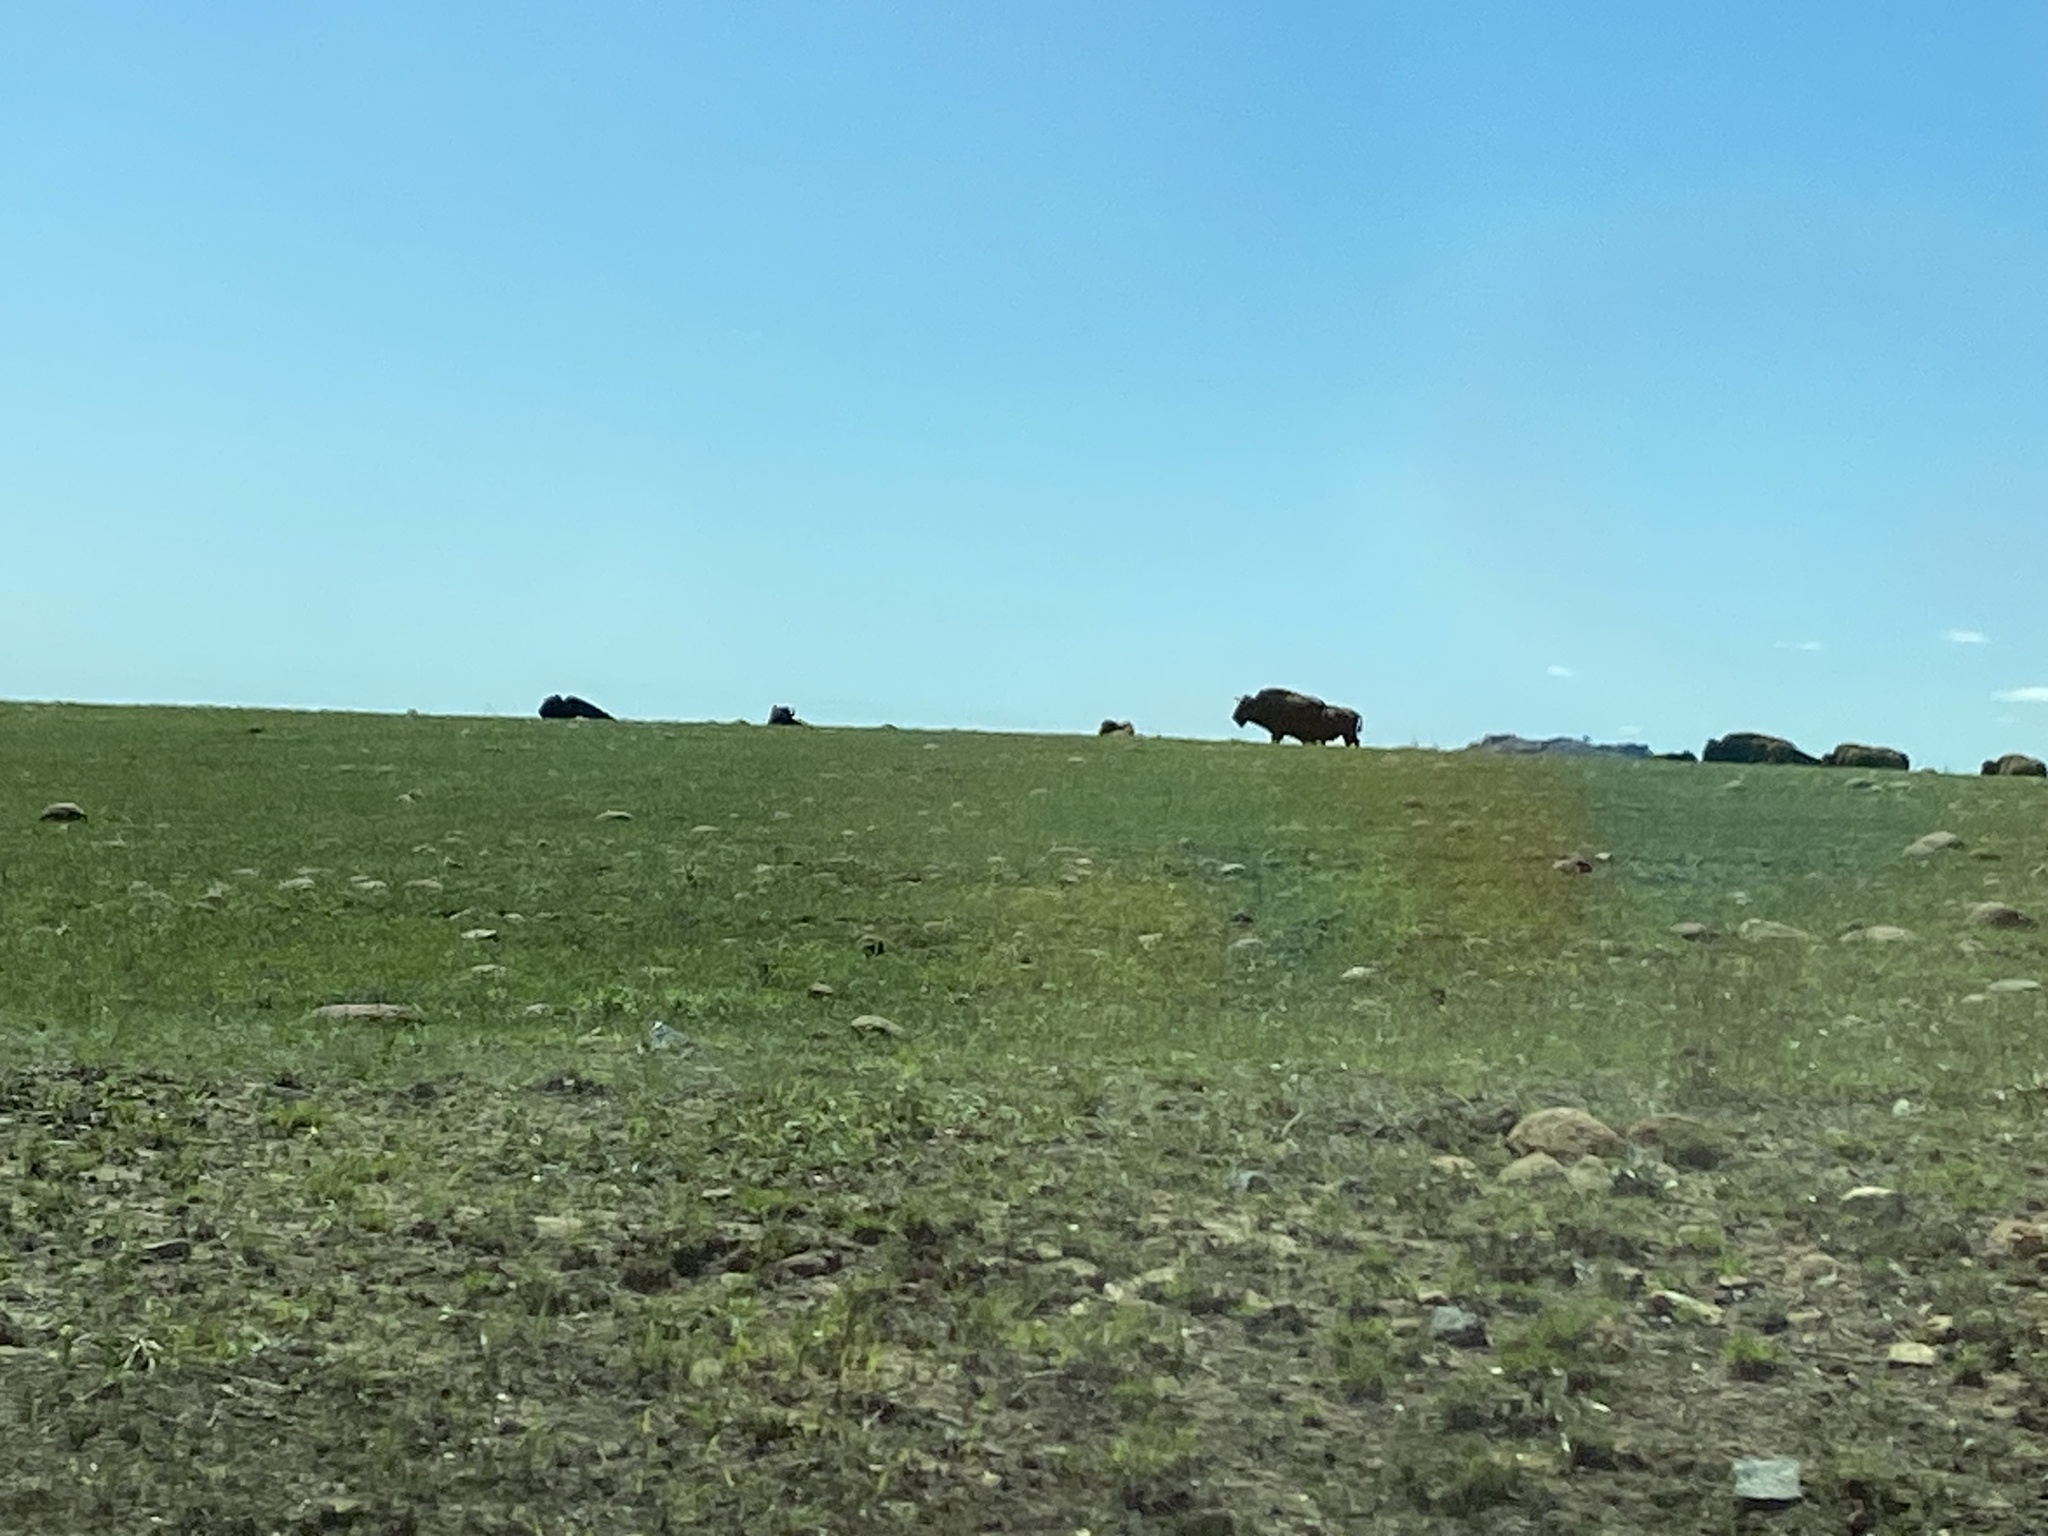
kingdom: Animalia
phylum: Chordata
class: Mammalia
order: Artiodactyla
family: Bovidae
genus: Bison
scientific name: Bison bison
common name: American bison
